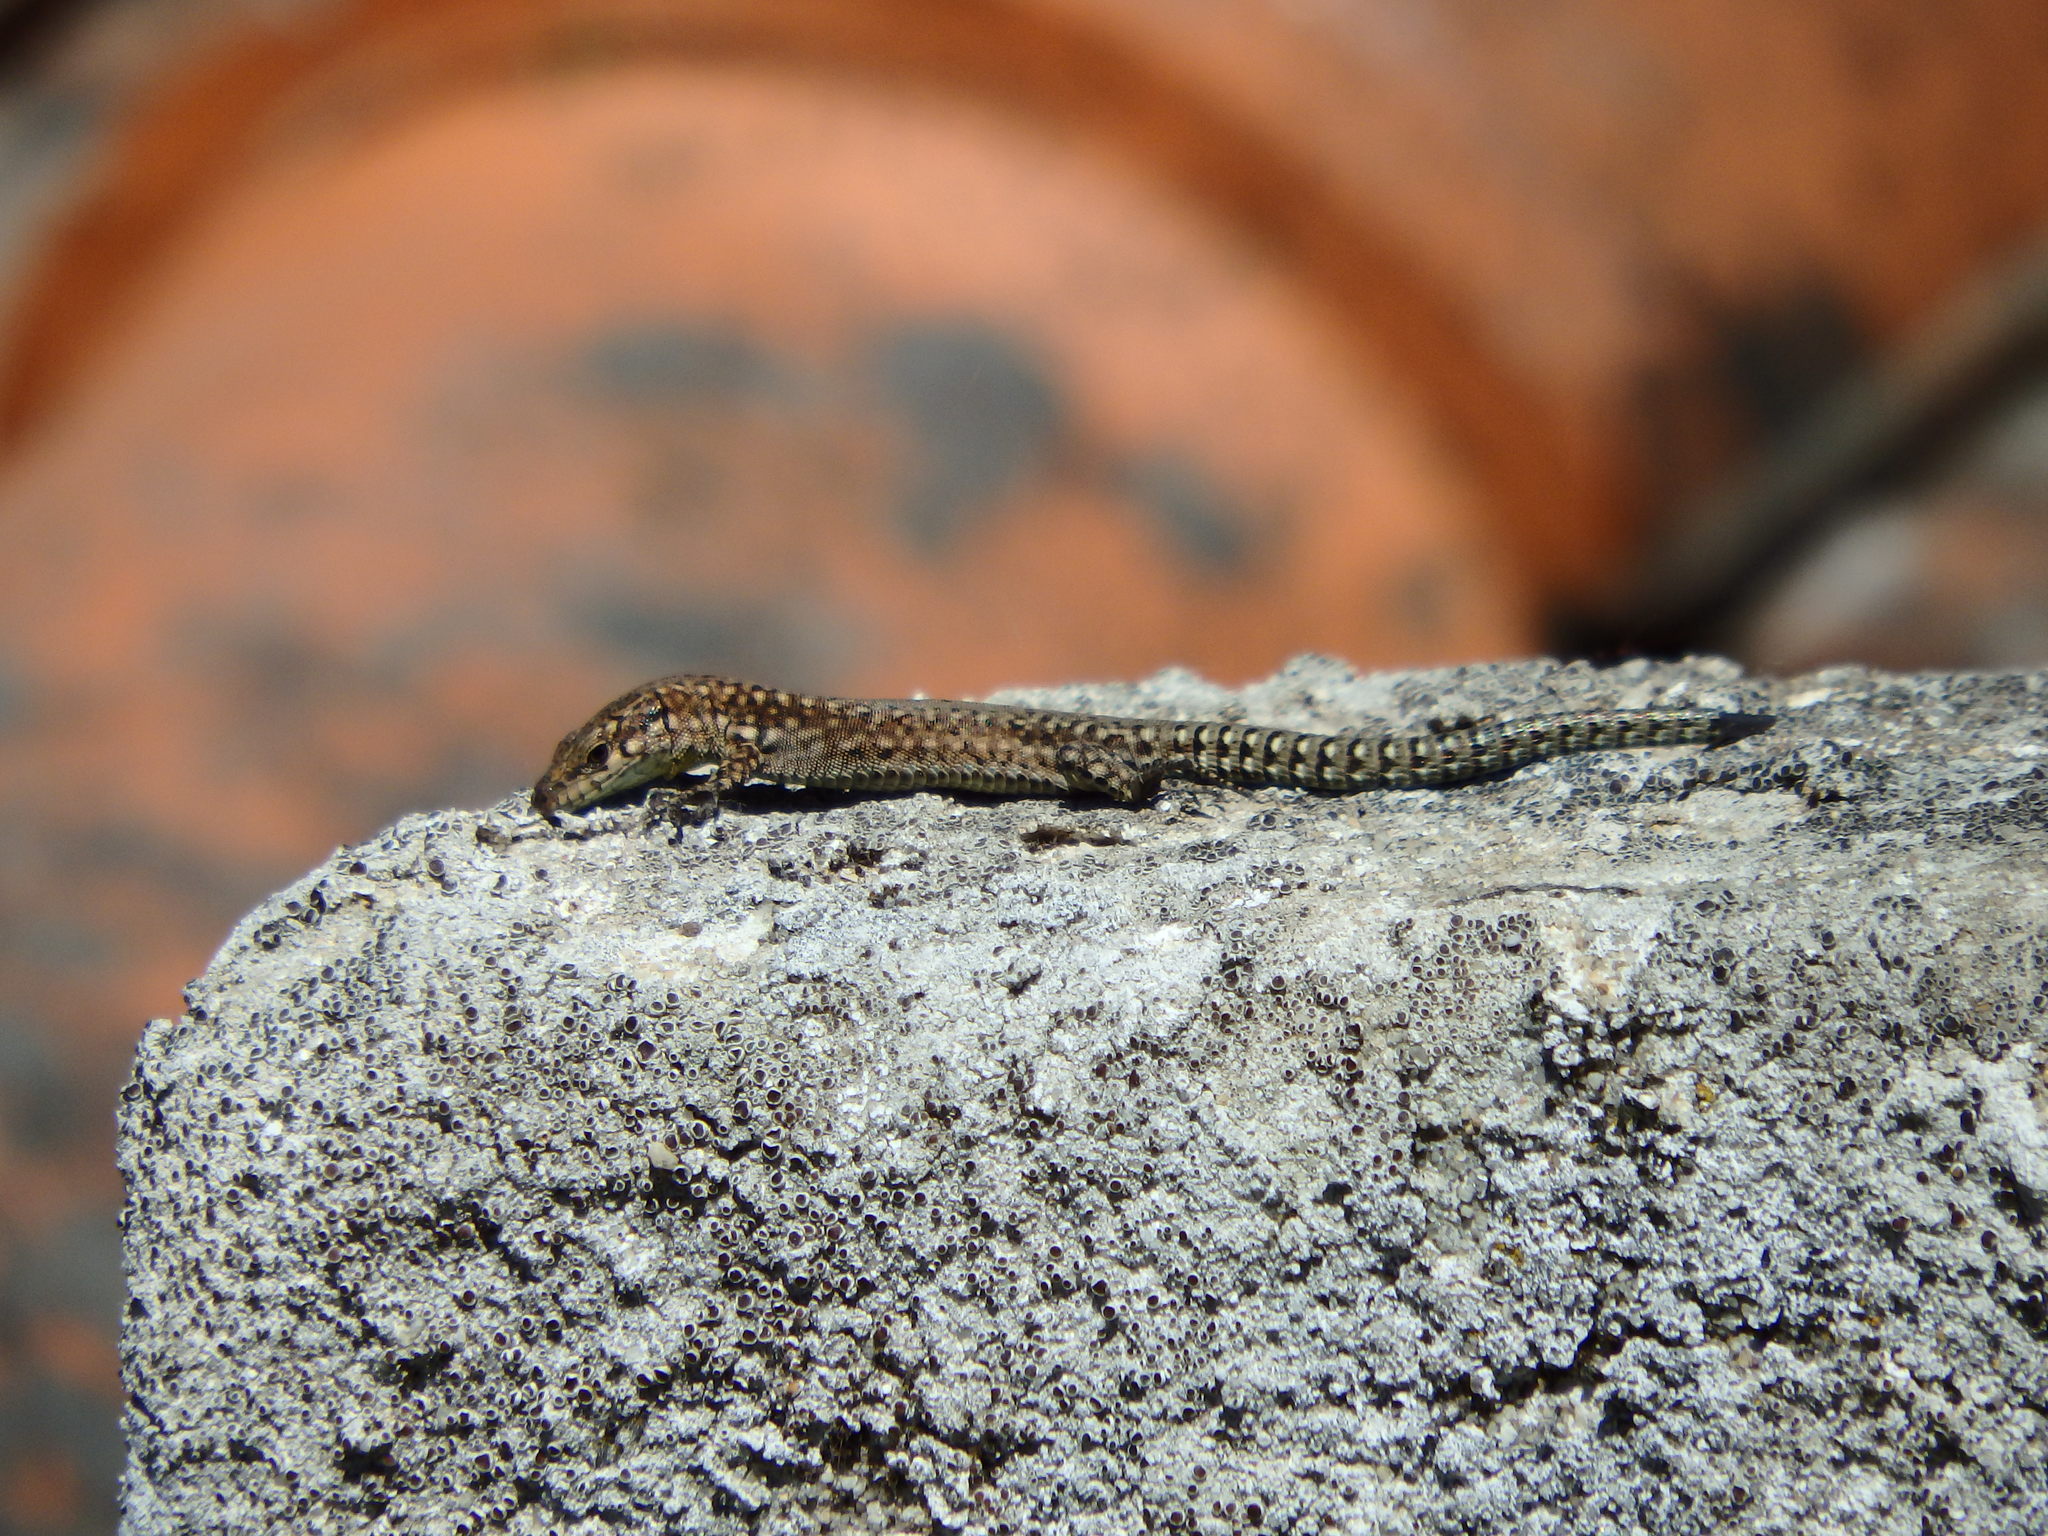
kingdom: Animalia
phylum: Chordata
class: Squamata
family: Lacertidae
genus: Podarcis
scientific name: Podarcis virescens
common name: Geniez’s wall lizard
